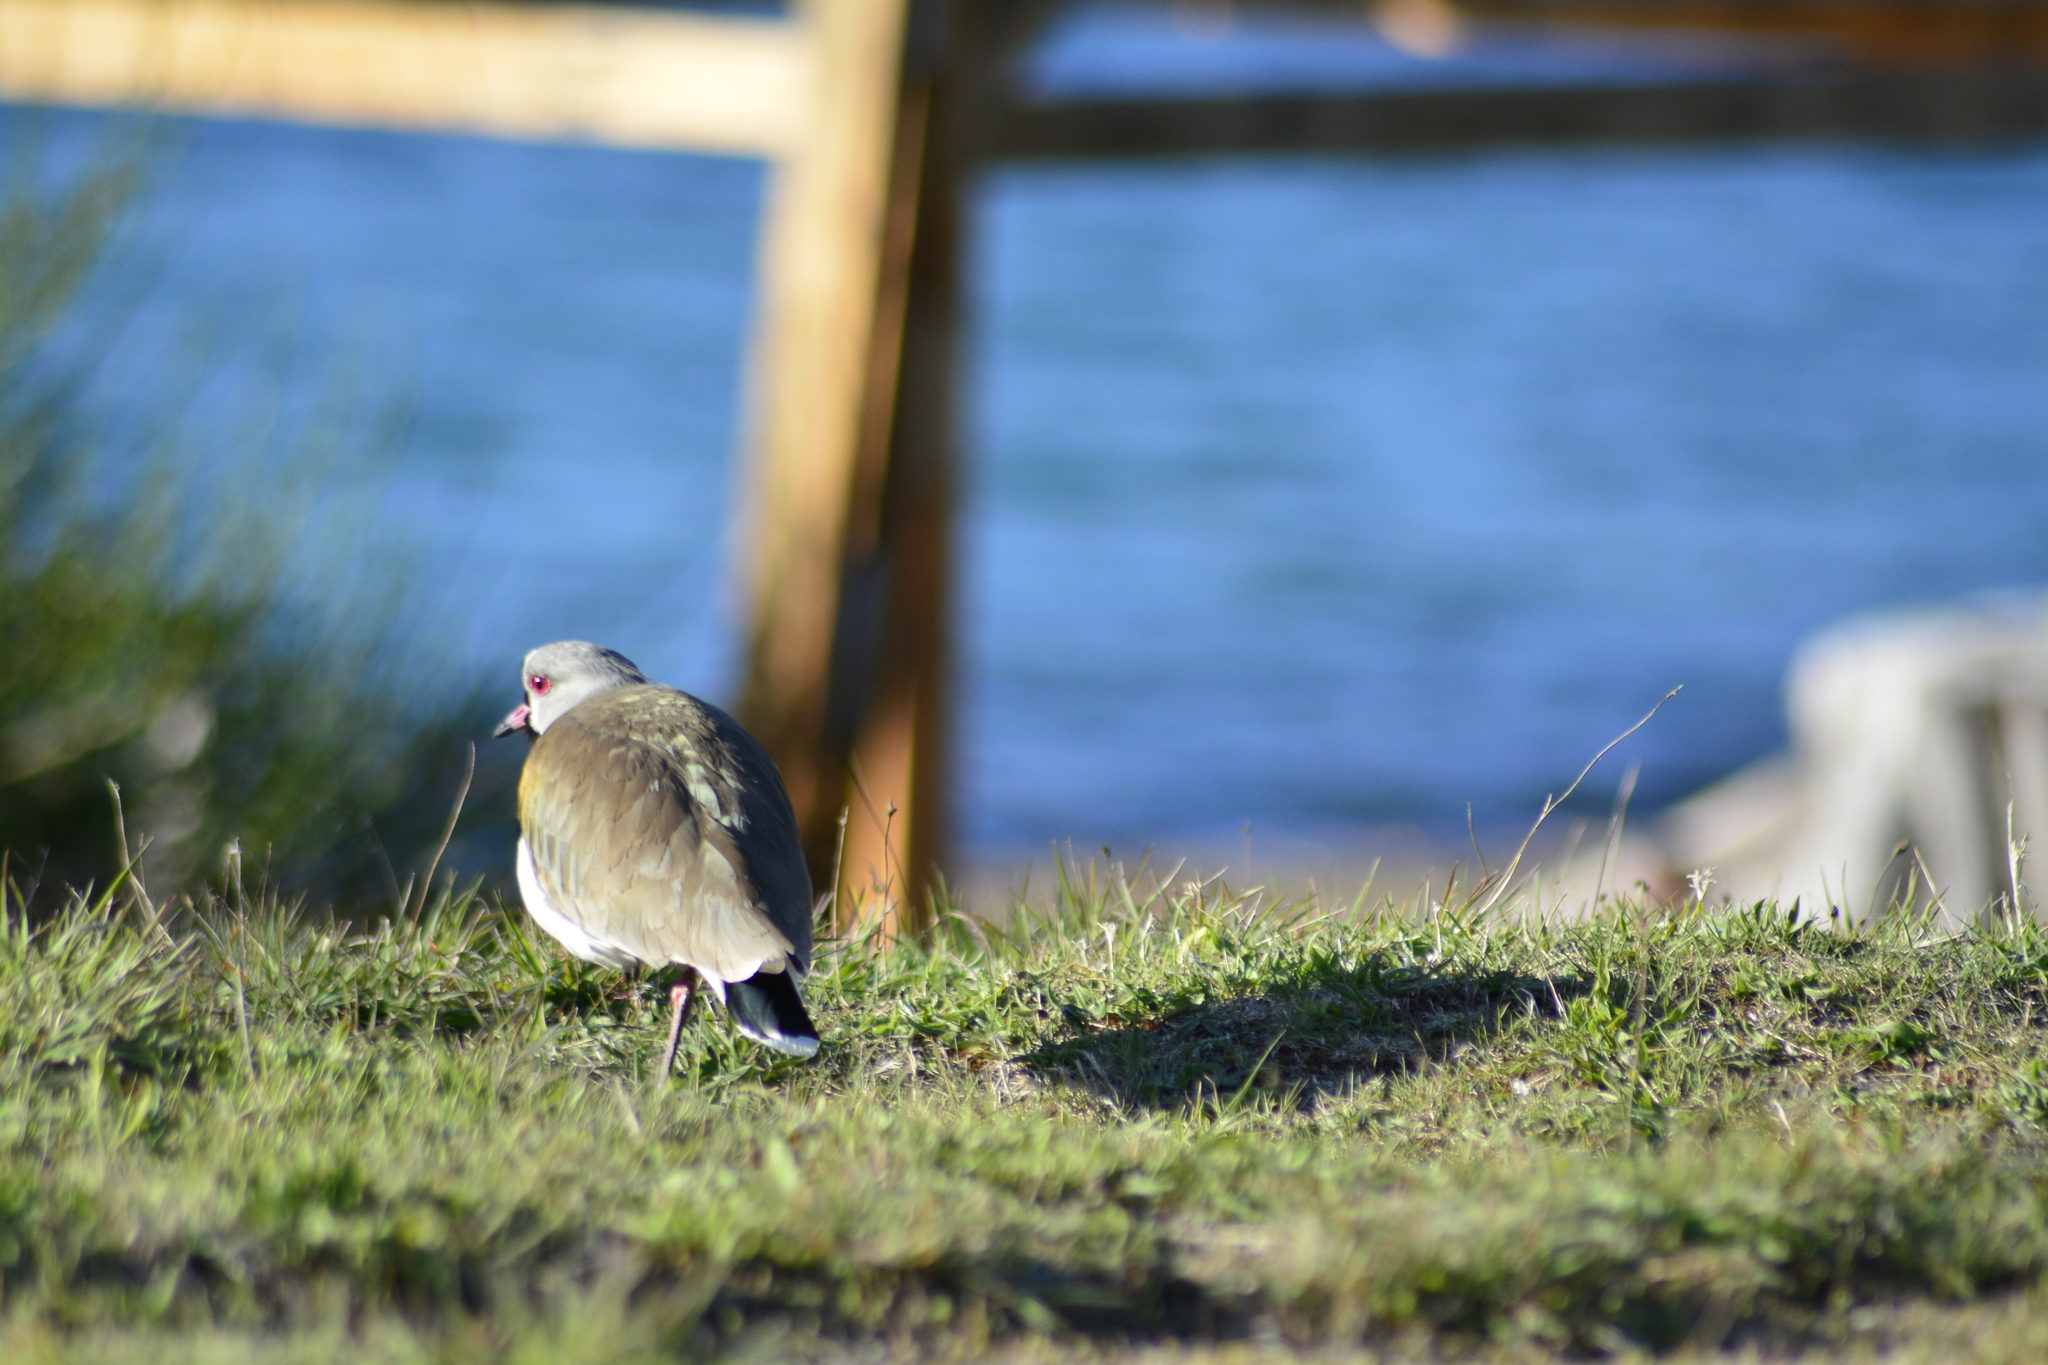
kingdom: Animalia
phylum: Chordata
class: Aves
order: Charadriiformes
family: Charadriidae
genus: Vanellus
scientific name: Vanellus chilensis
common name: Southern lapwing
